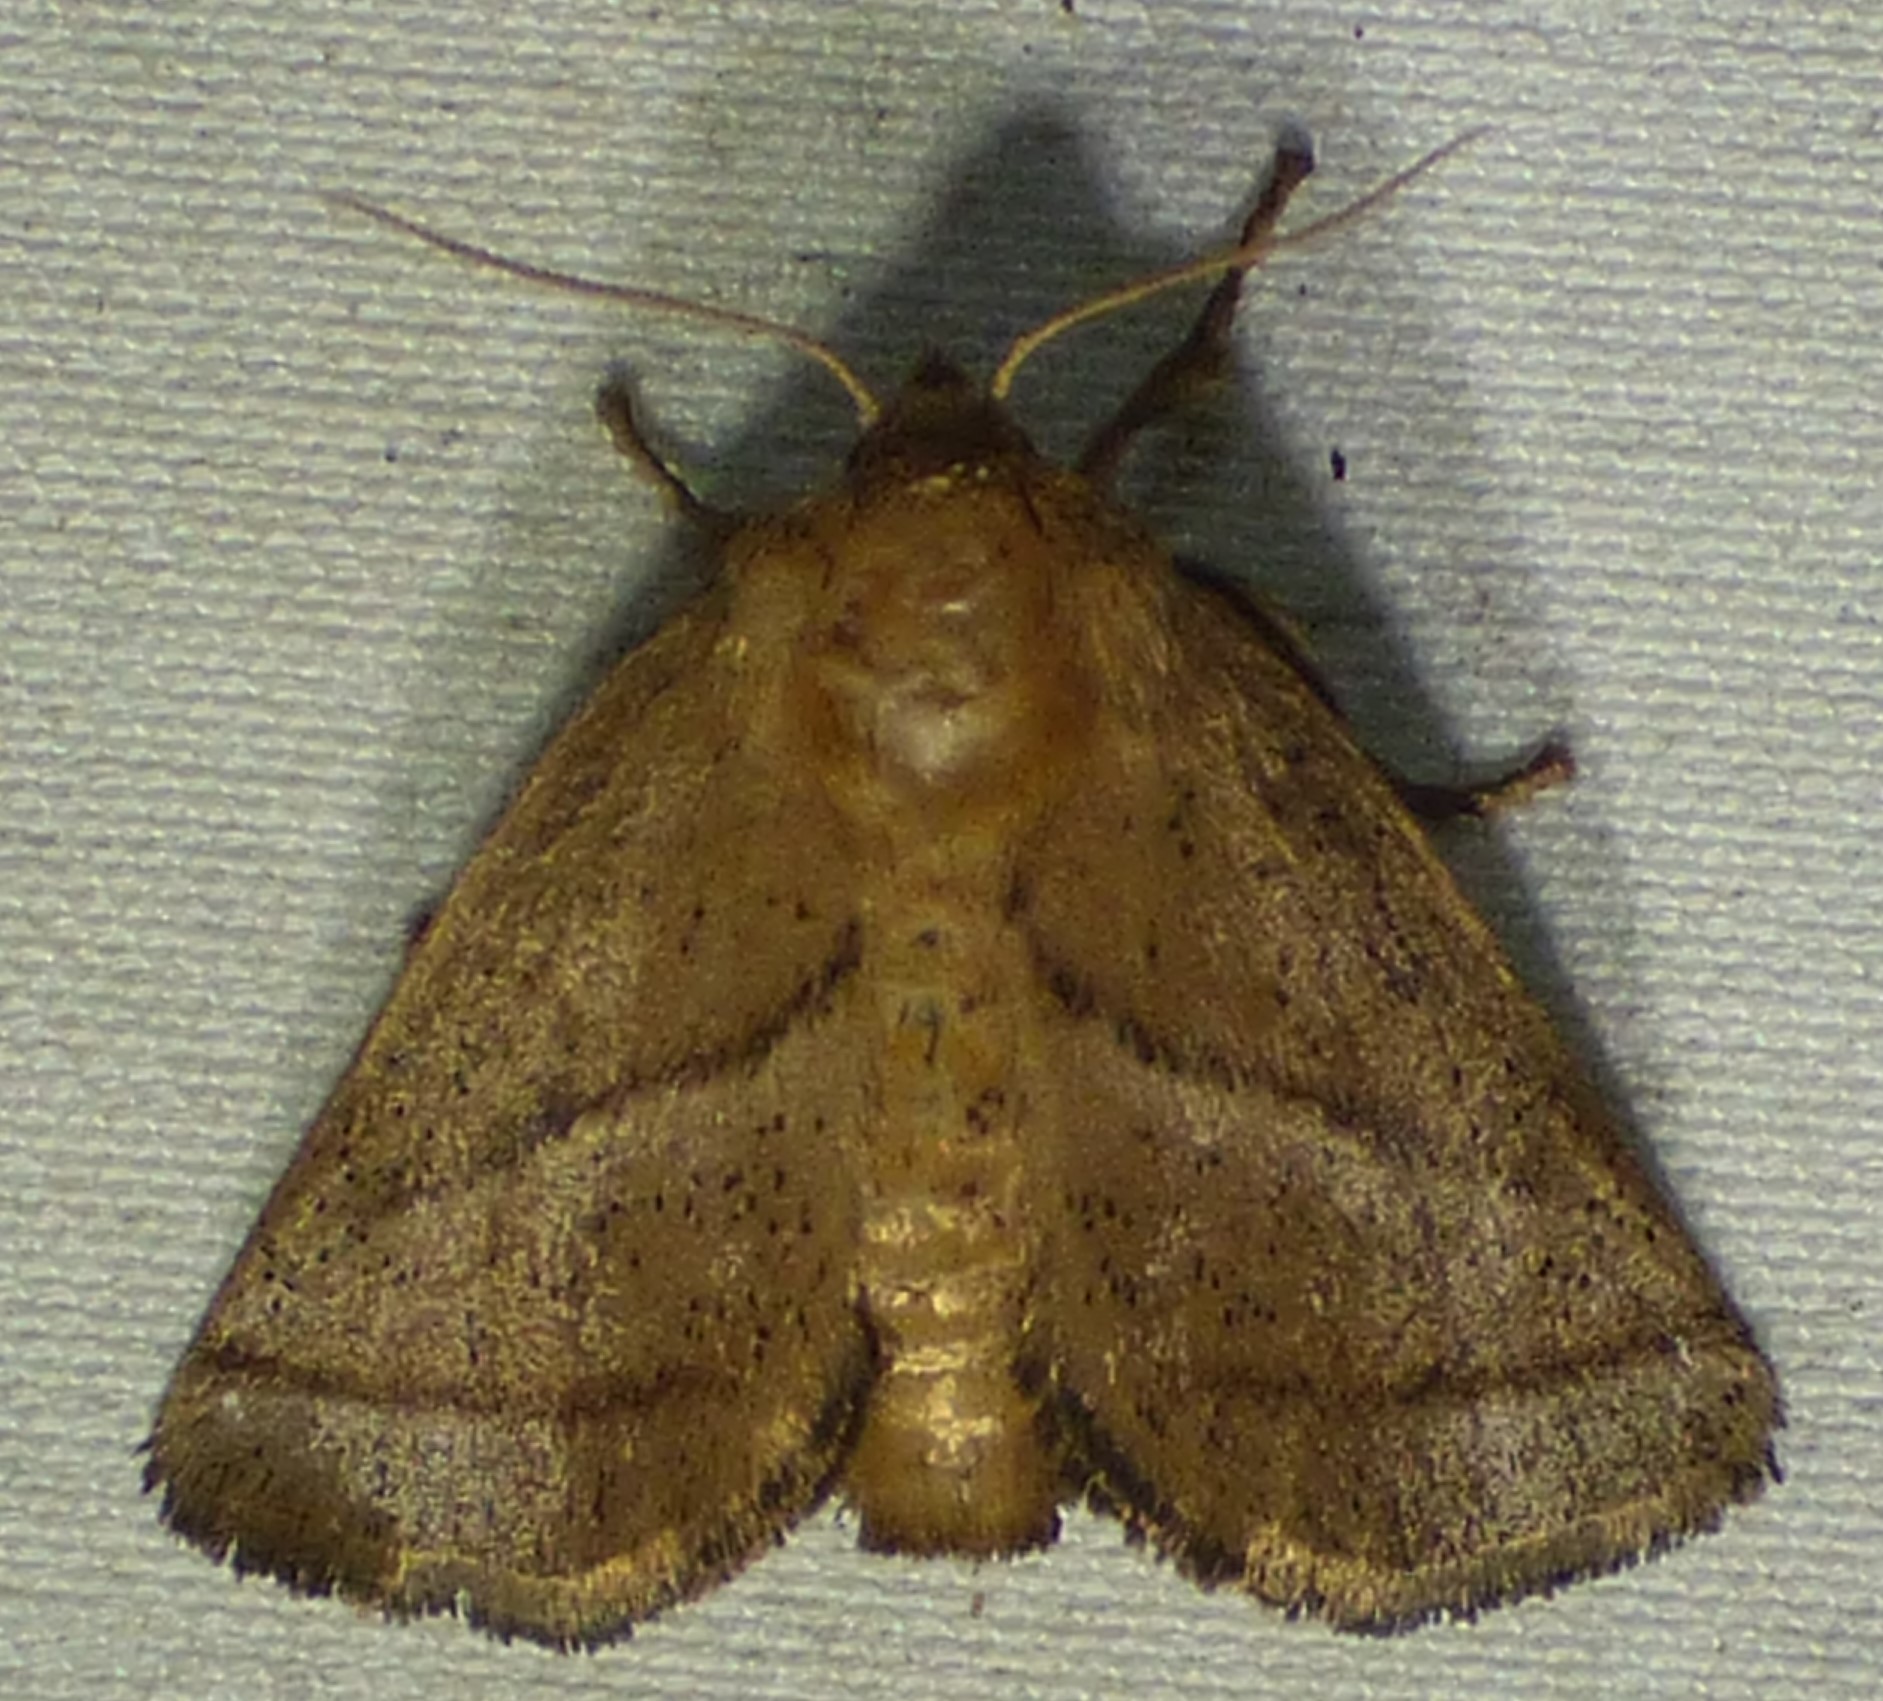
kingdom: Animalia
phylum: Arthropoda
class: Insecta
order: Lepidoptera
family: Limacodidae
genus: Natada
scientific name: Natada nasoni
